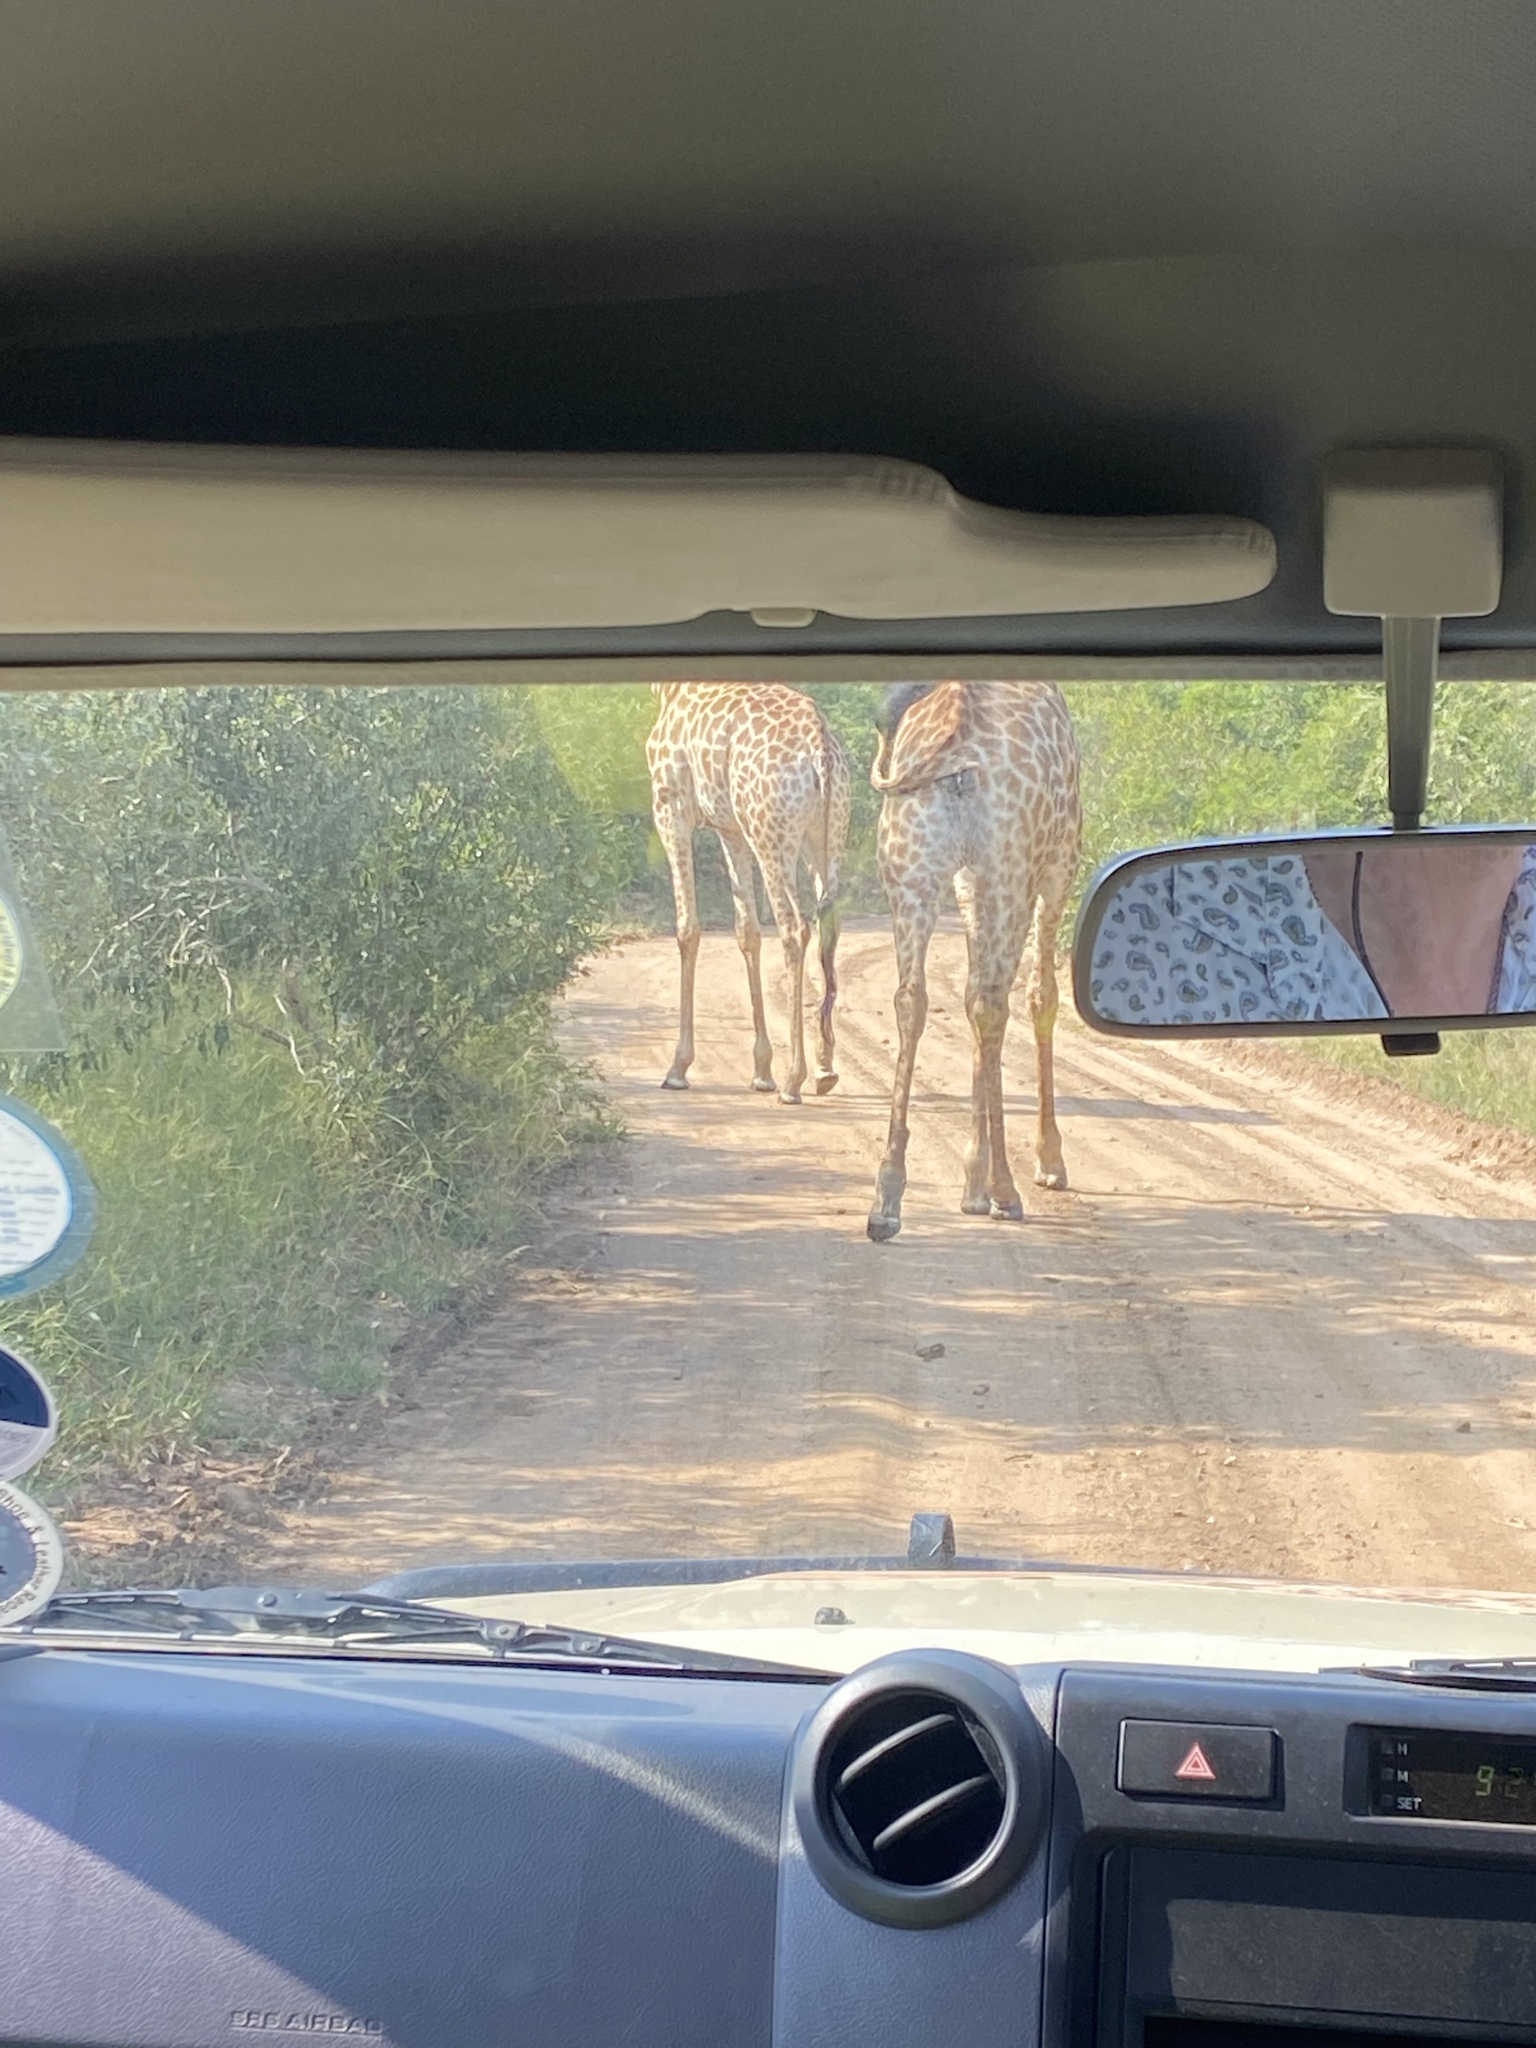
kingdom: Animalia
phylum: Chordata
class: Mammalia
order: Artiodactyla
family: Giraffidae
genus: Giraffa
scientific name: Giraffa giraffa
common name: Southern giraffe
